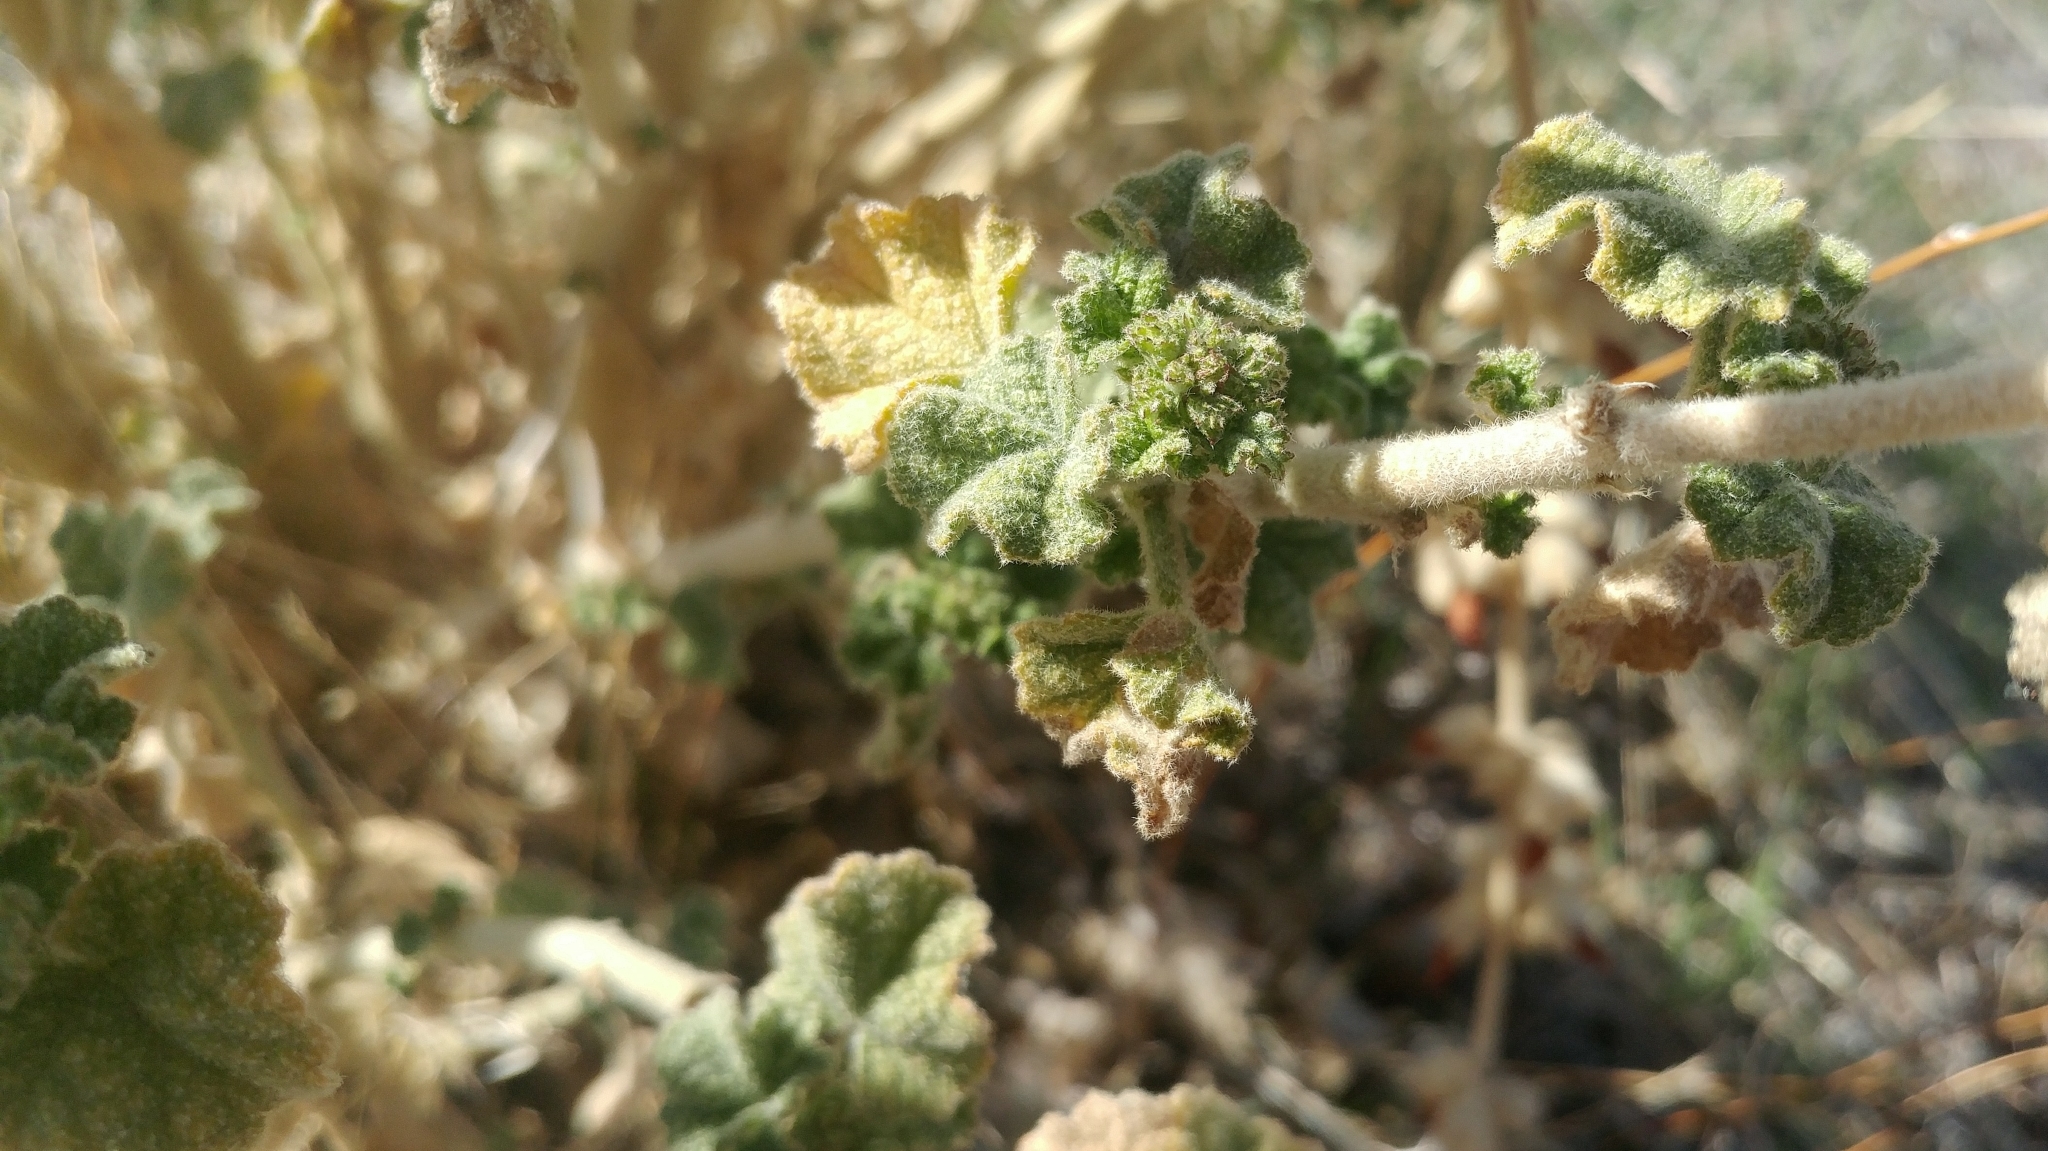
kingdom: Plantae
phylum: Tracheophyta
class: Magnoliopsida
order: Malvales
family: Malvaceae
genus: Malacothamnus
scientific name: Malacothamnus fremontii
